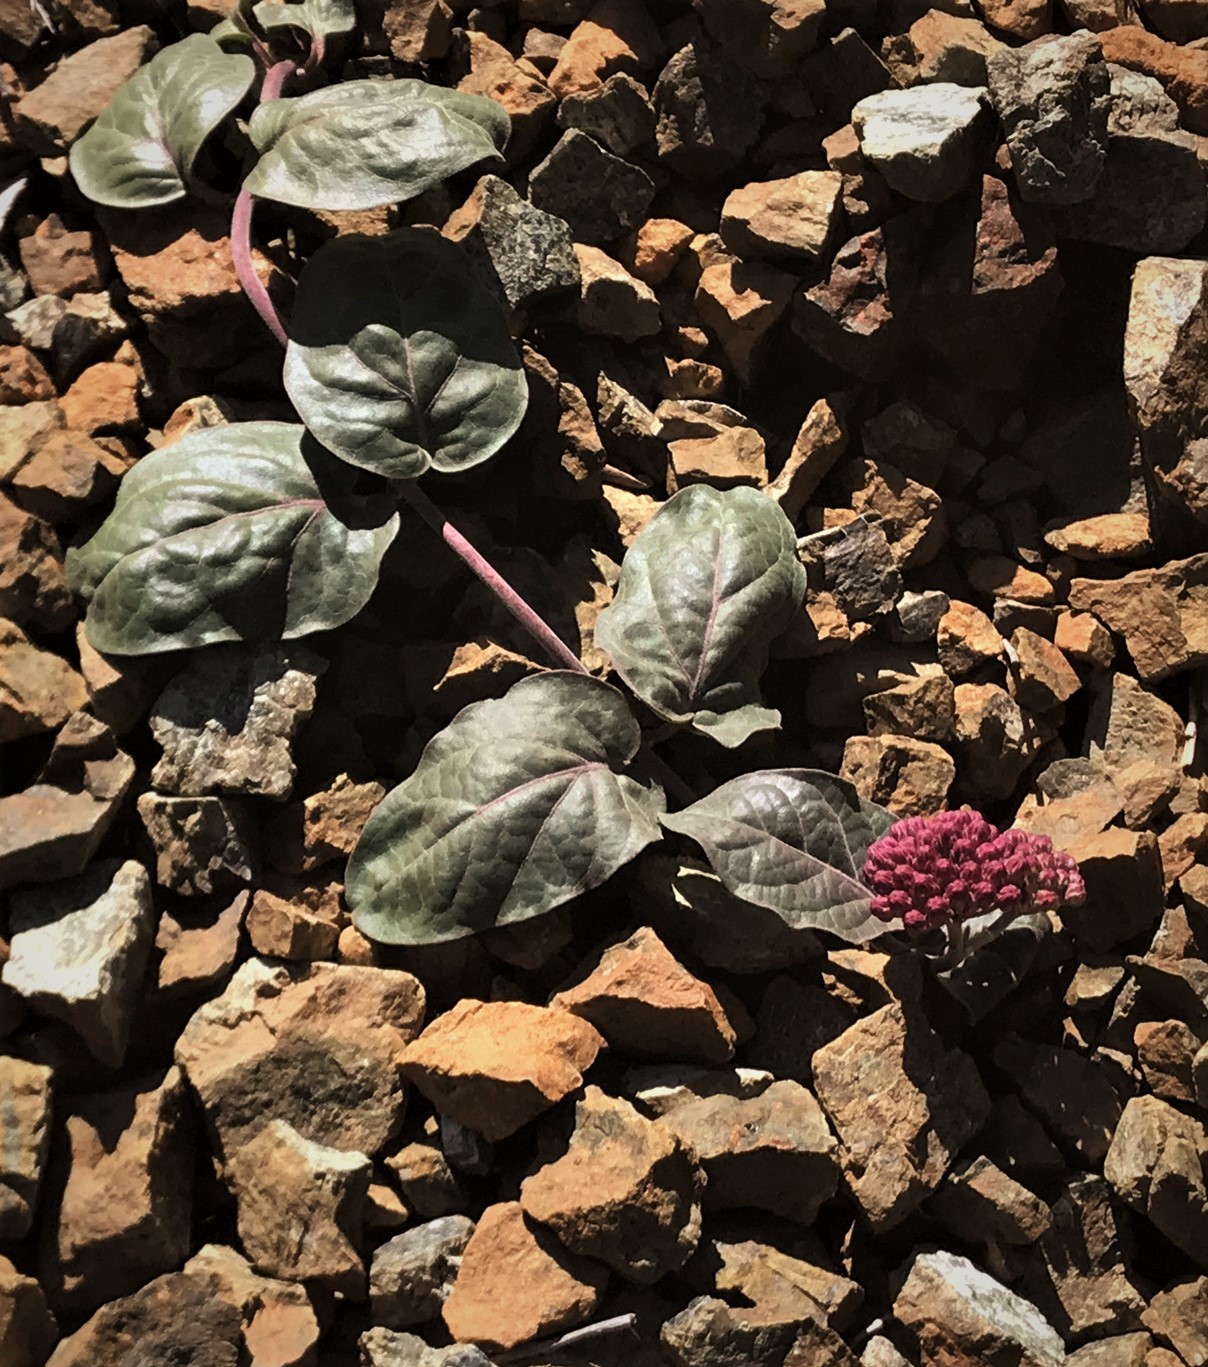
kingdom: Plantae
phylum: Tracheophyta
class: Magnoliopsida
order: Gentianales
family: Apocynaceae
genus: Asclepias
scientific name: Asclepias solanoana
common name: Serpentine milkweed
